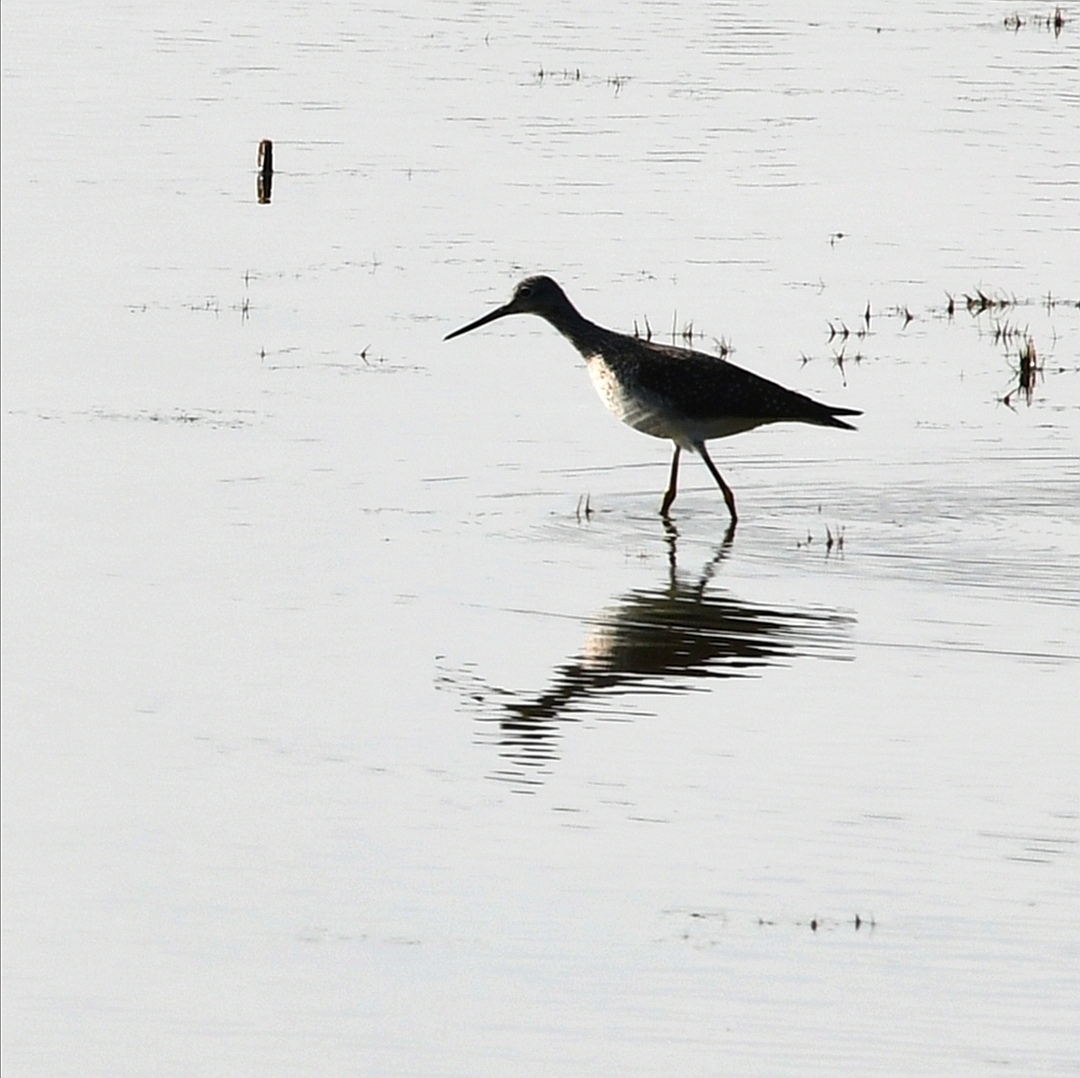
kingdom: Animalia
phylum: Chordata
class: Aves
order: Charadriiformes
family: Scolopacidae
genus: Tringa
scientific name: Tringa melanoleuca
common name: Greater yellowlegs
